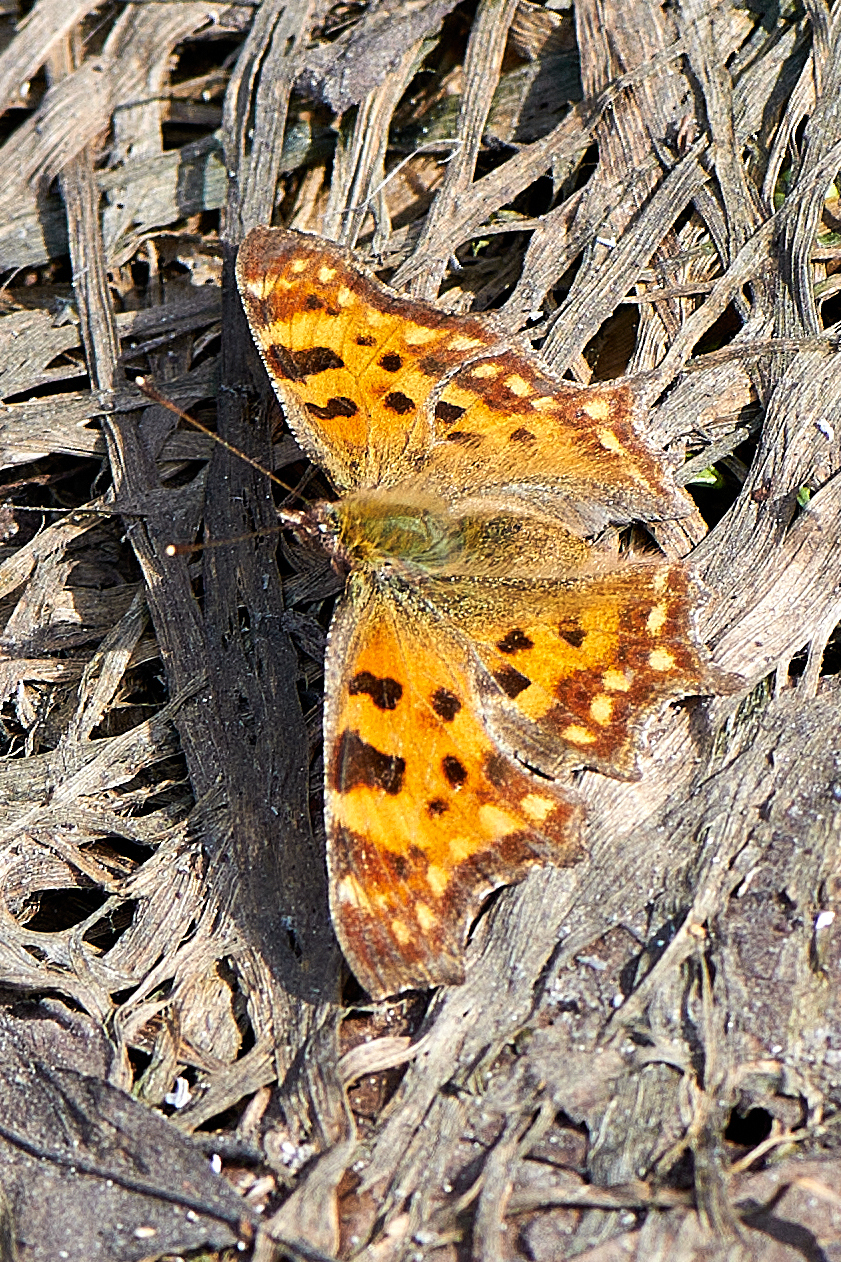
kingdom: Animalia
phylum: Arthropoda
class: Insecta
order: Lepidoptera
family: Nymphalidae
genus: Polygonia
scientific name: Polygonia c-album
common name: Comma
